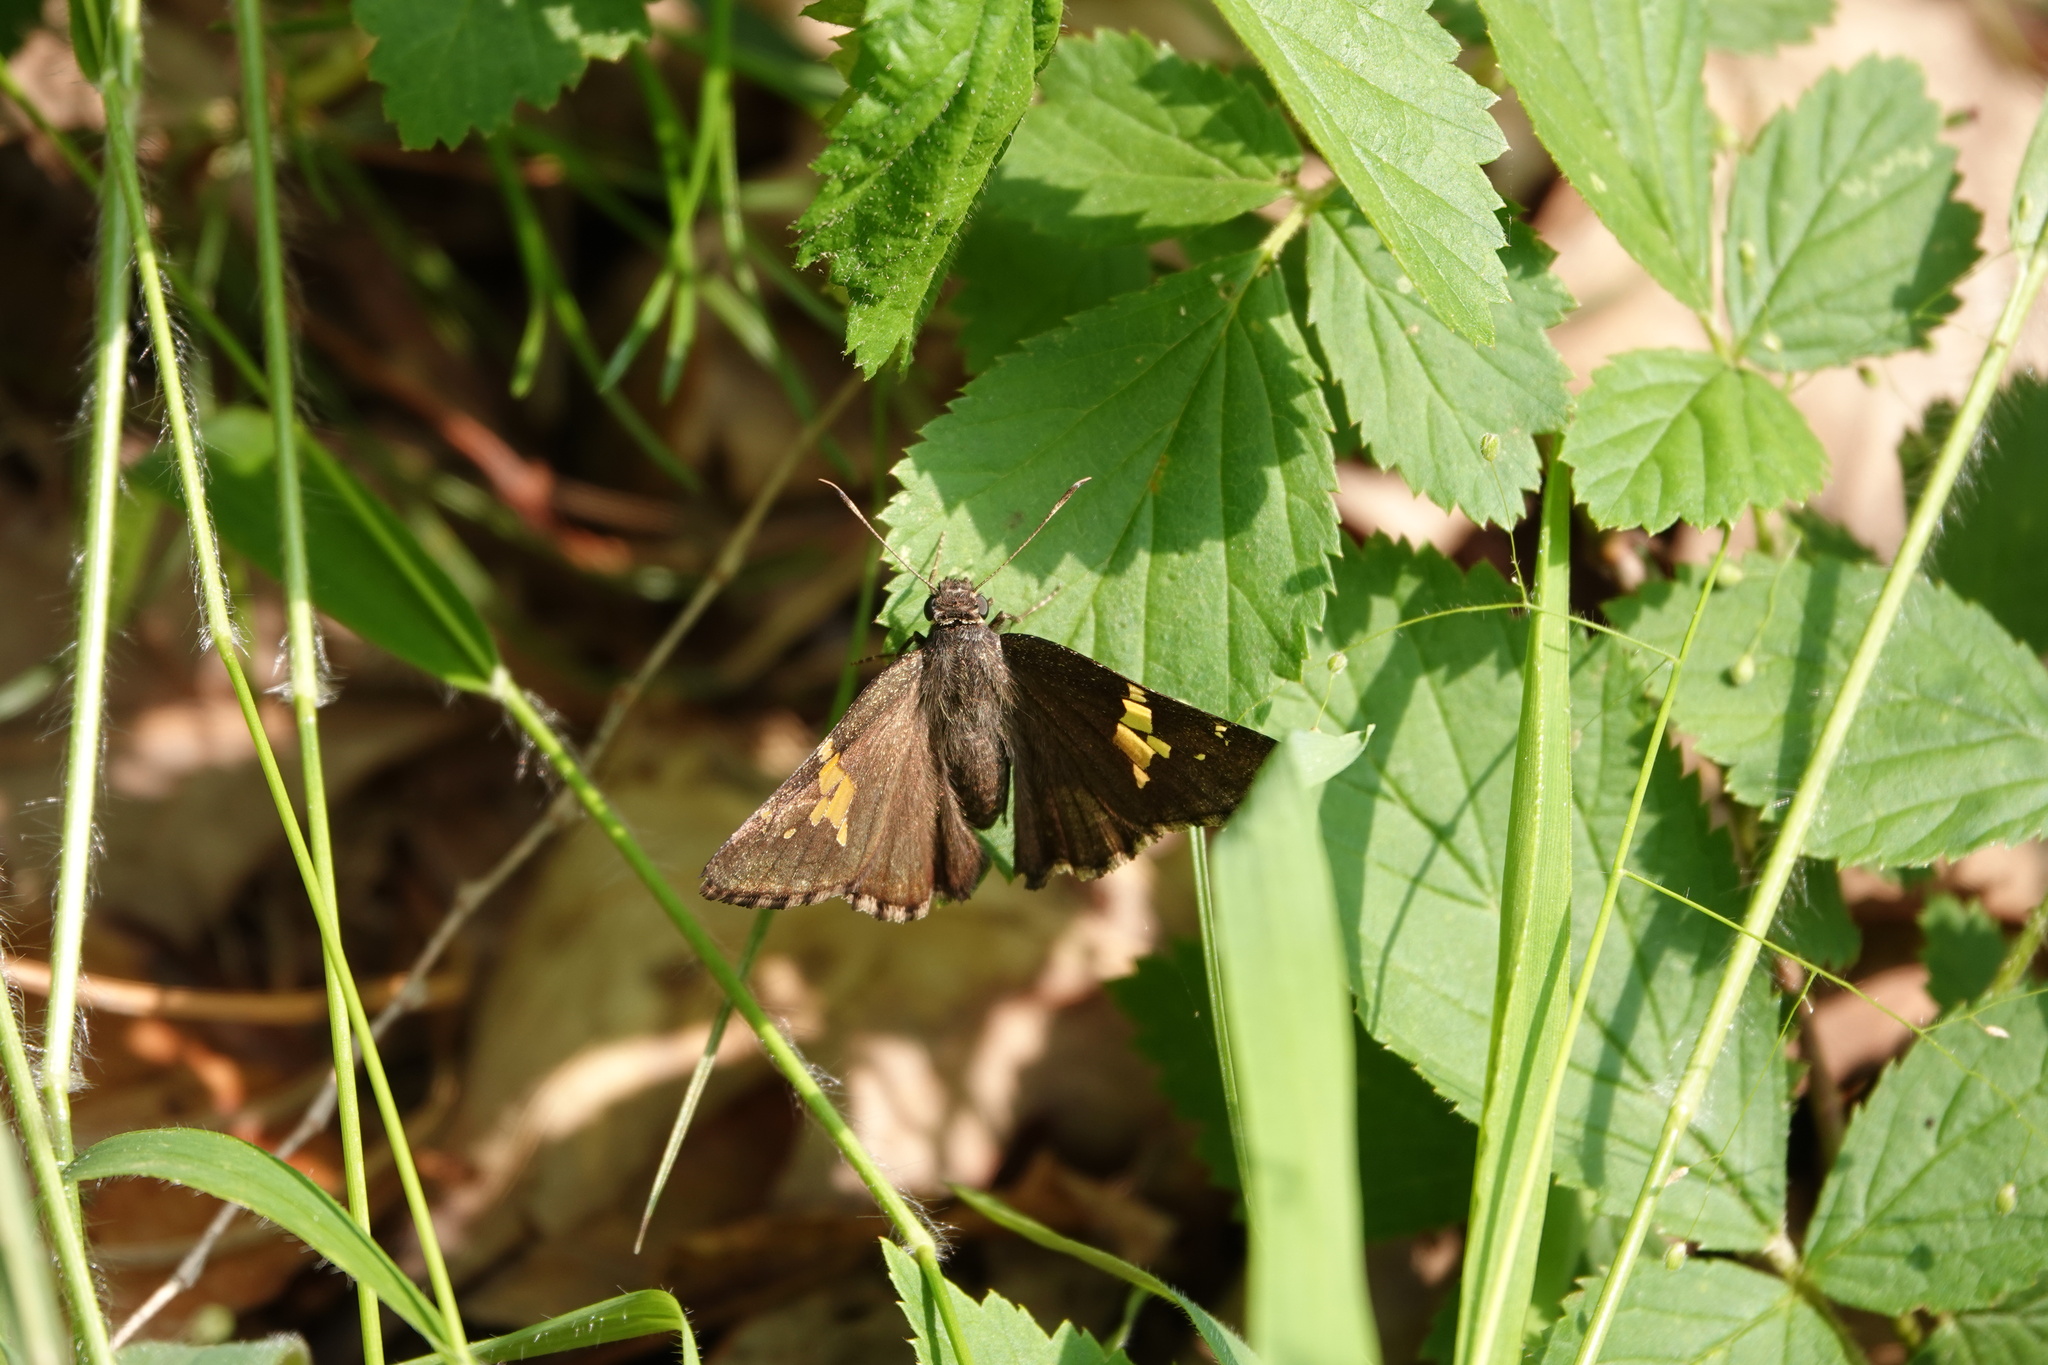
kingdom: Animalia
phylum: Arthropoda
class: Insecta
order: Lepidoptera
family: Hesperiidae
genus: Thorybes
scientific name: Thorybes lyciades
